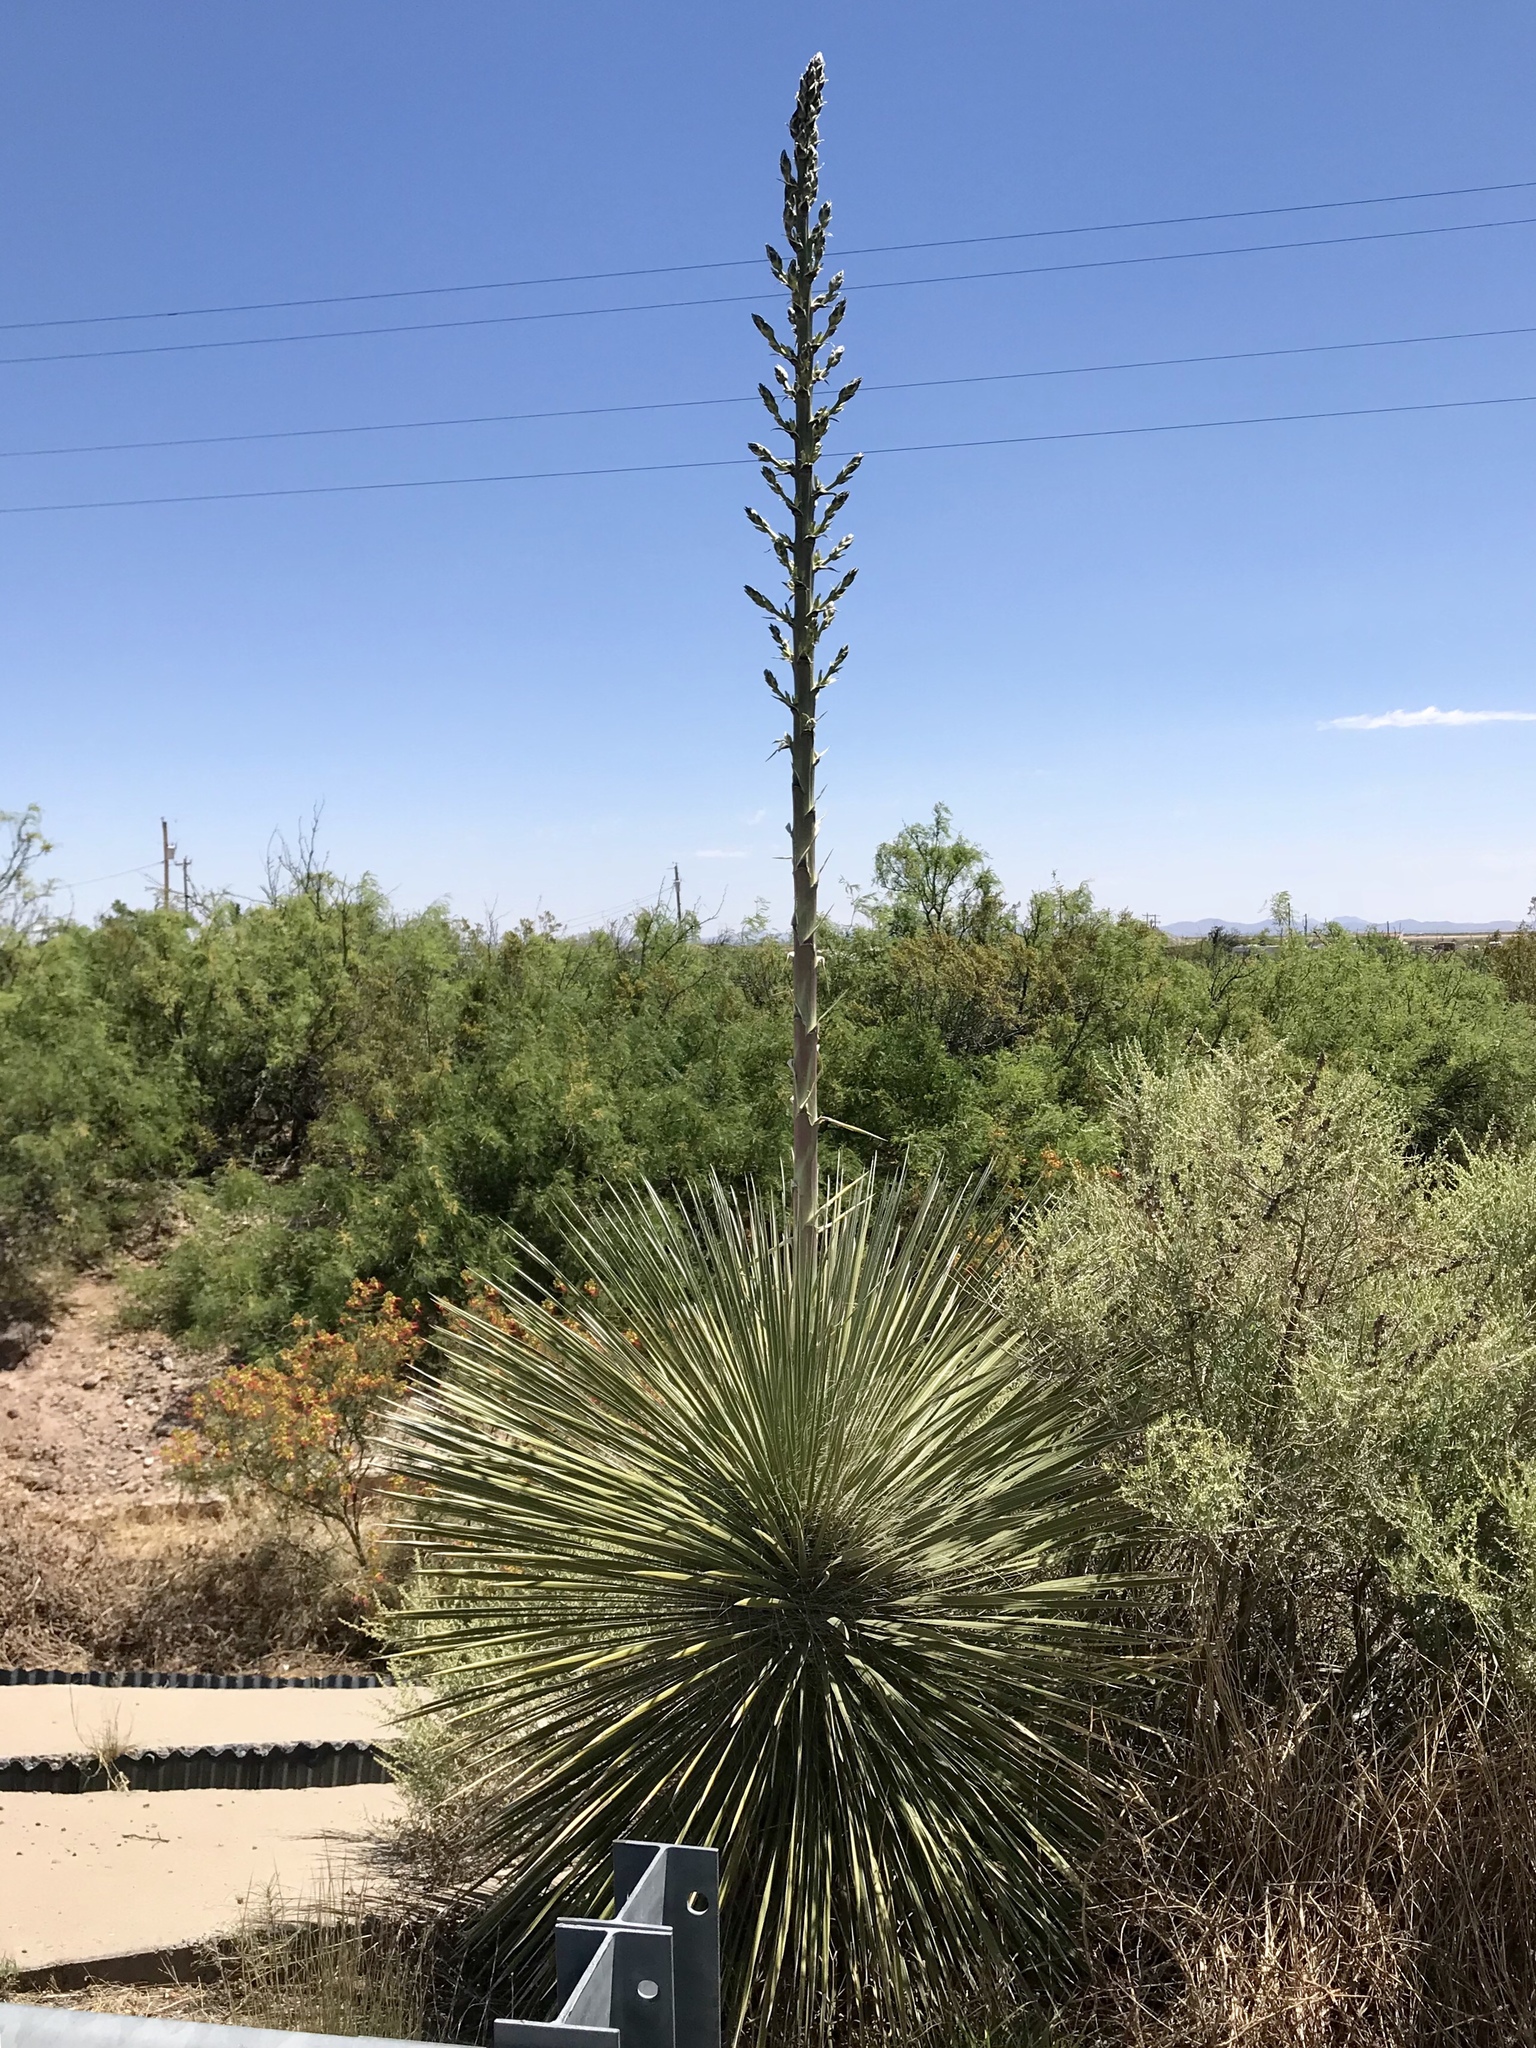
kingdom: Plantae
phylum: Tracheophyta
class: Liliopsida
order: Asparagales
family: Asparagaceae
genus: Yucca
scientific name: Yucca elata
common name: Palmella
